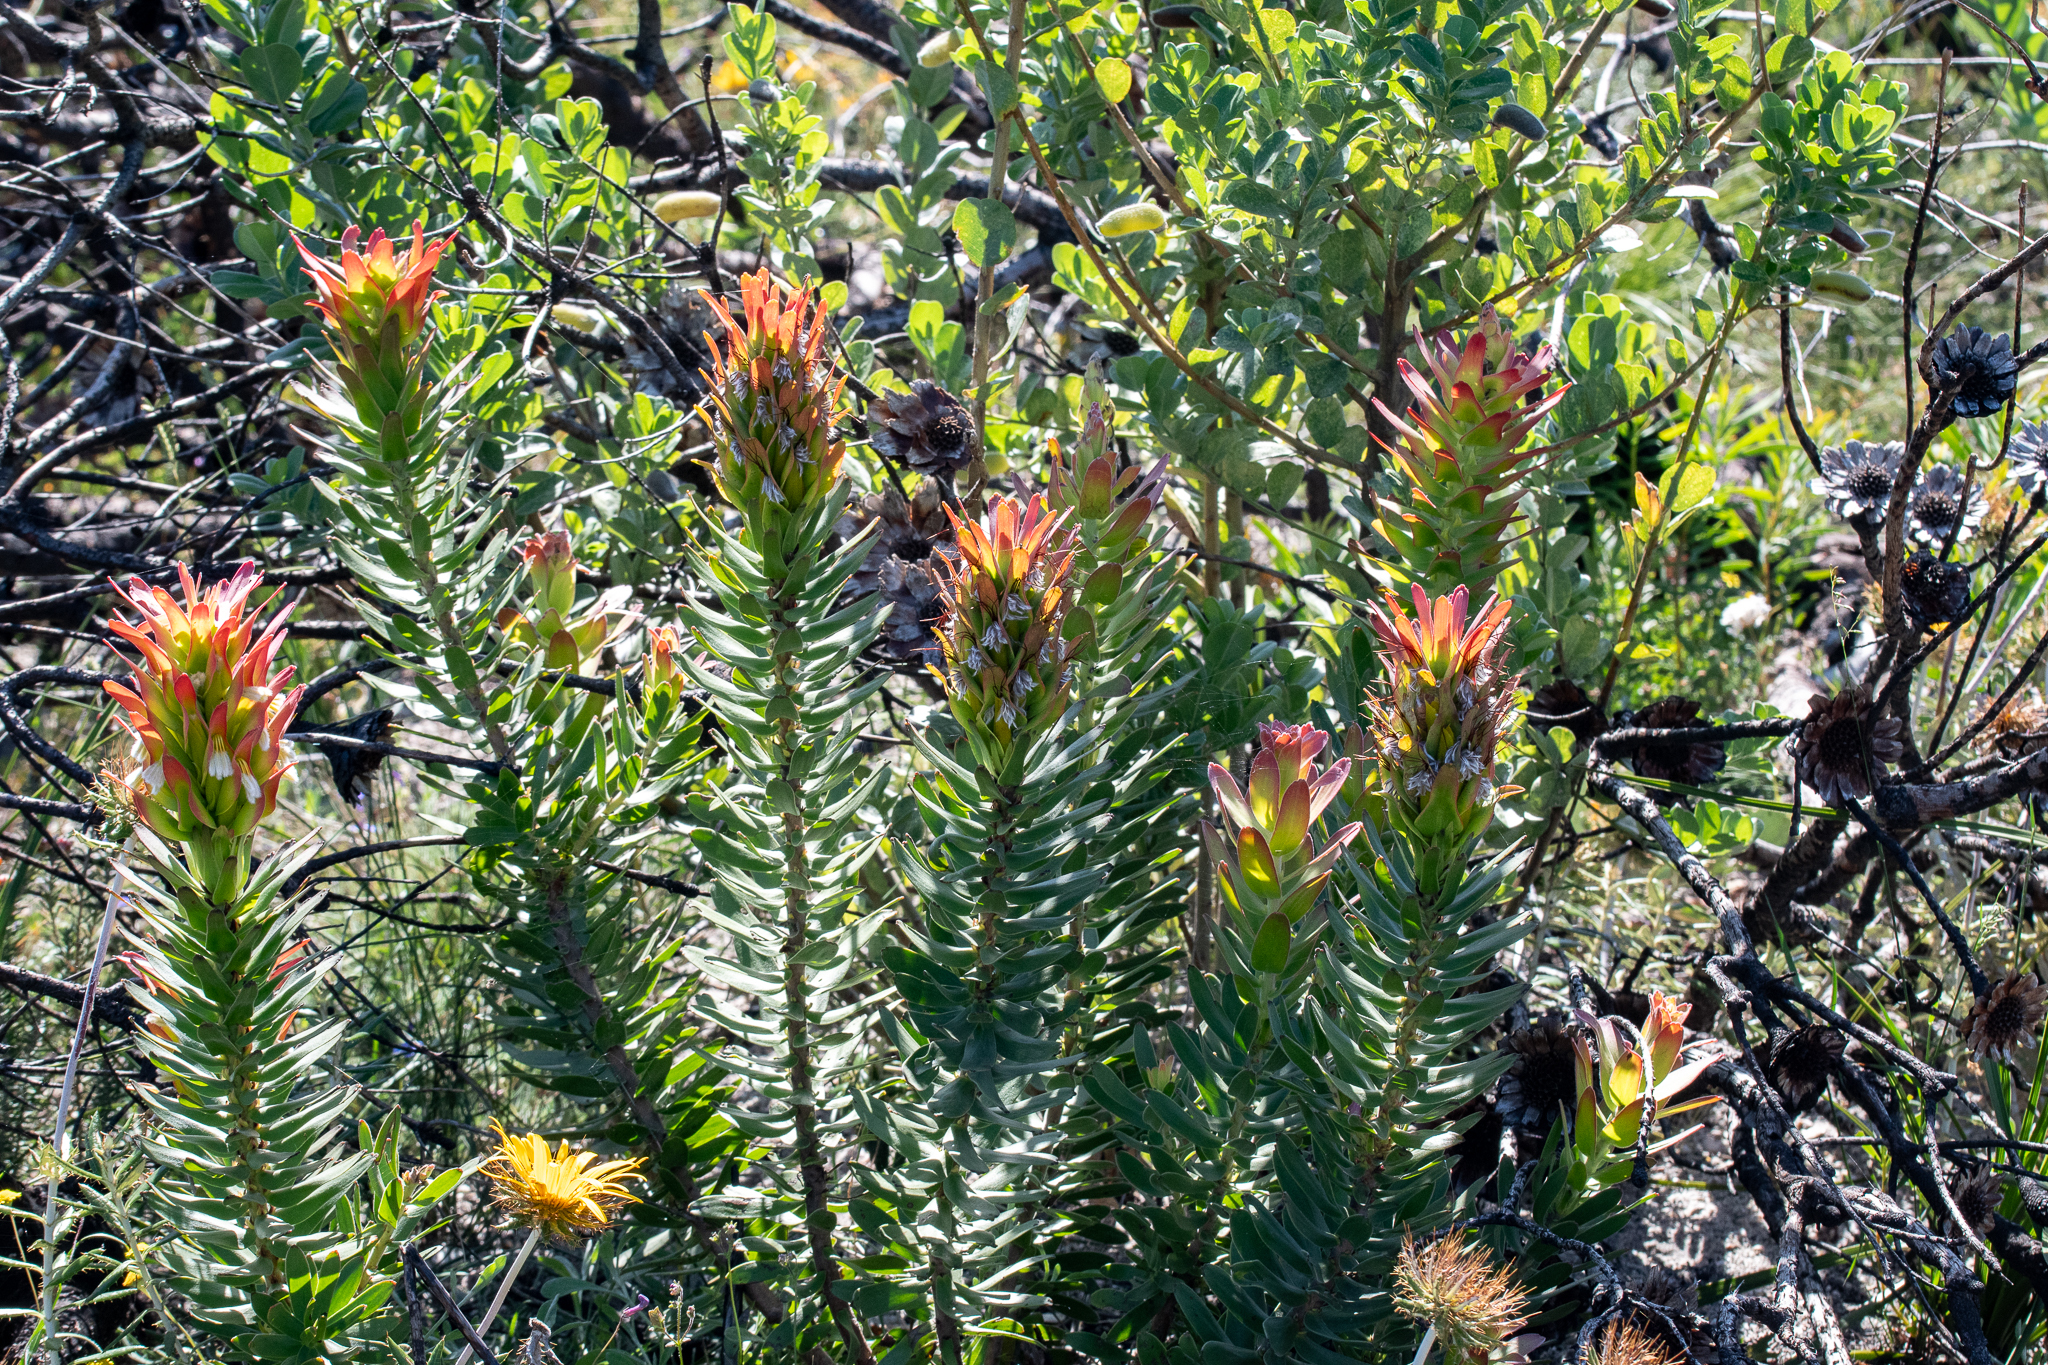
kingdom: Plantae
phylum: Tracheophyta
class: Magnoliopsida
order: Proteales
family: Proteaceae
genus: Mimetes
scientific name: Mimetes cucullatus
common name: Common pagoda
